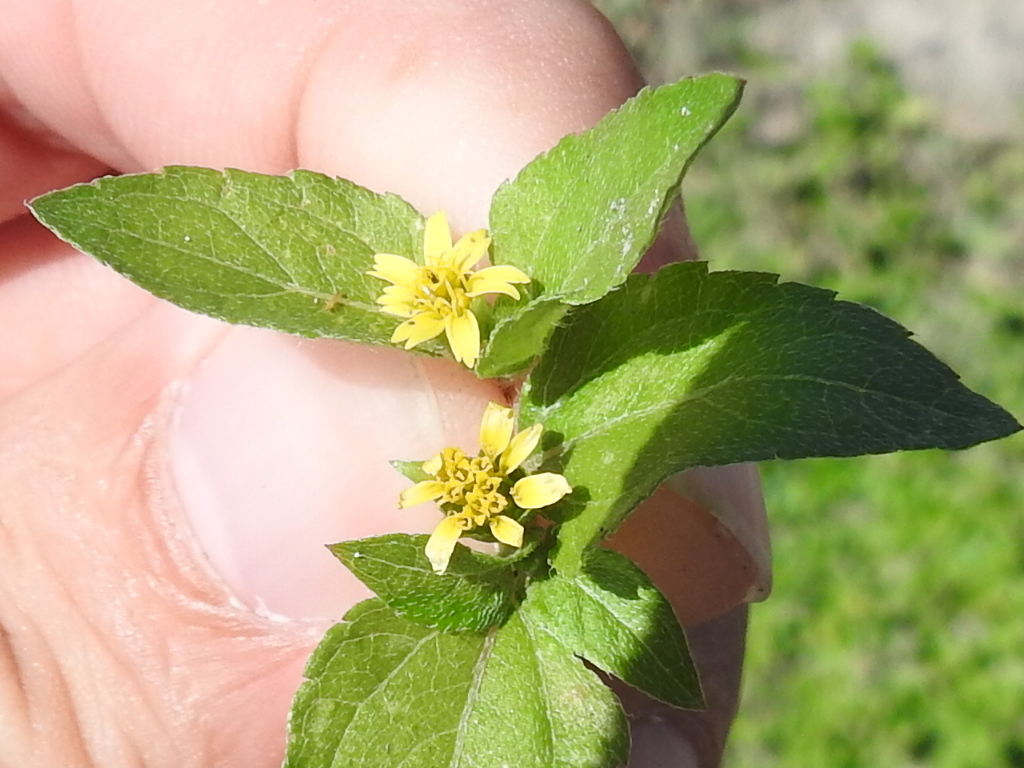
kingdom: Plantae
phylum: Tracheophyta
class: Magnoliopsida
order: Asterales
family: Asteraceae
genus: Calyptocarpus
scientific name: Calyptocarpus vialis
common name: Straggler daisy
